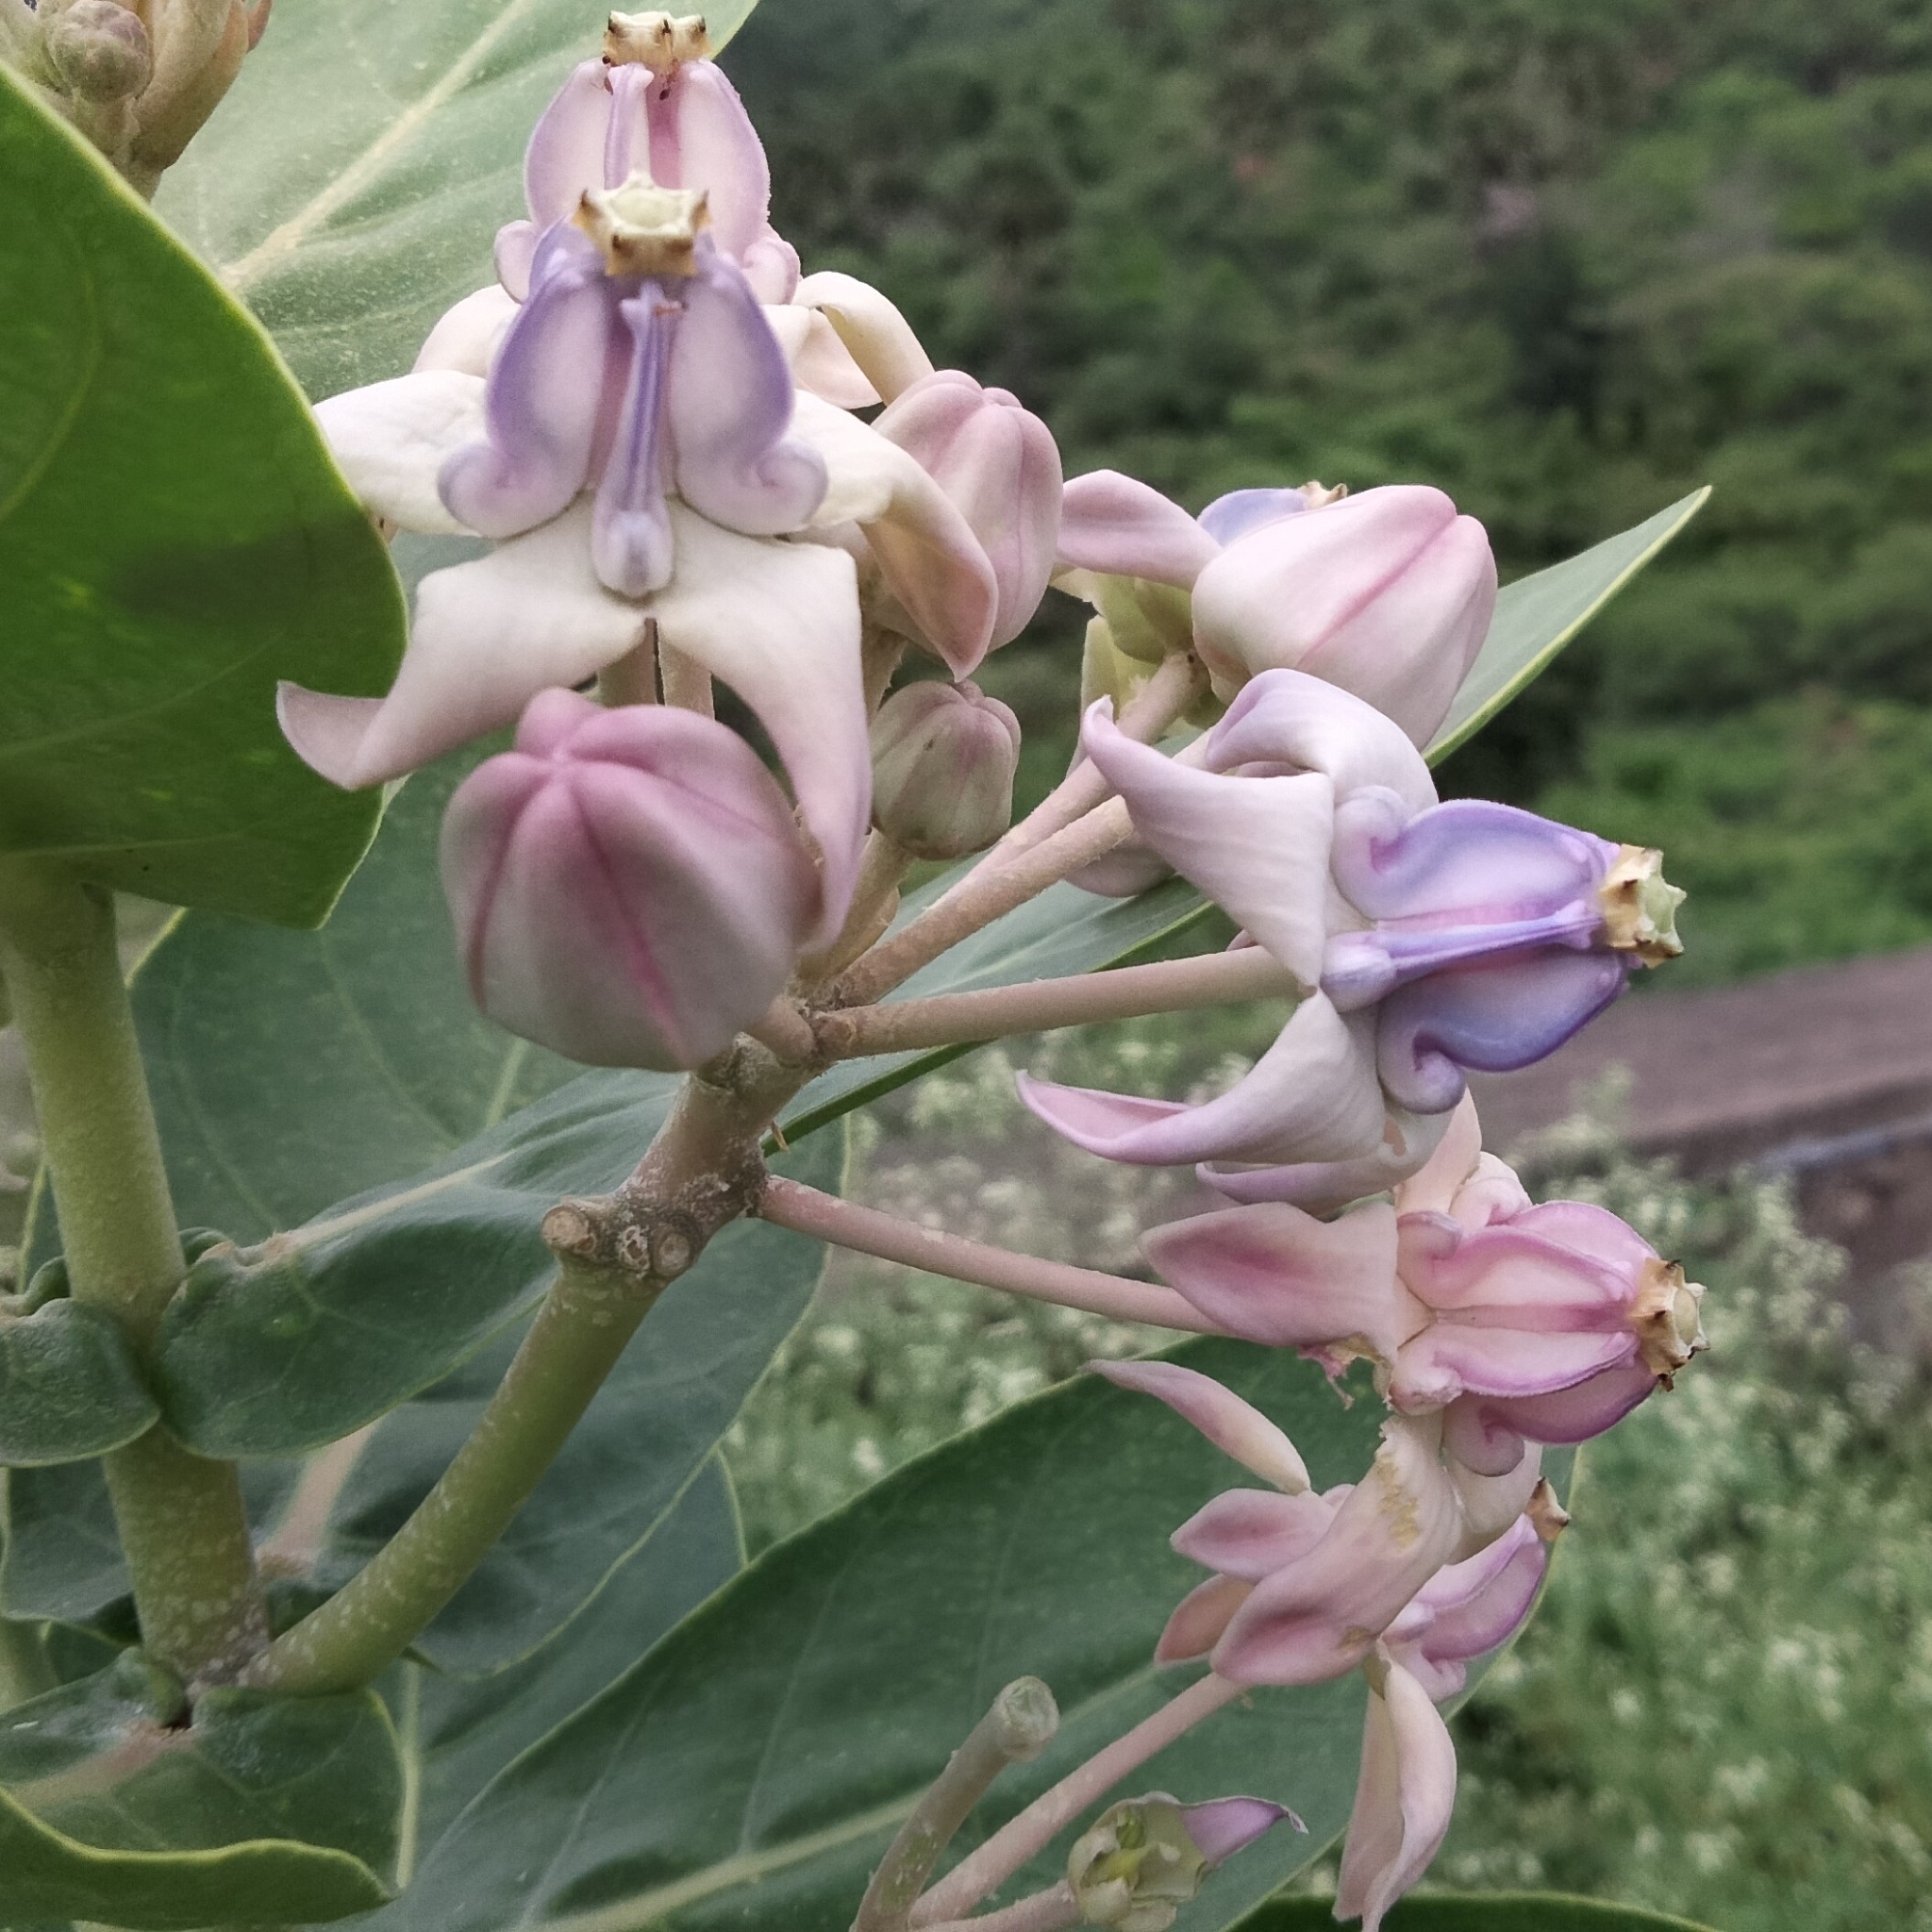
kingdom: Plantae
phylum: Tracheophyta
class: Magnoliopsida
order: Gentianales
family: Apocynaceae
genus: Calotropis
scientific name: Calotropis gigantea
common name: Crown flower
